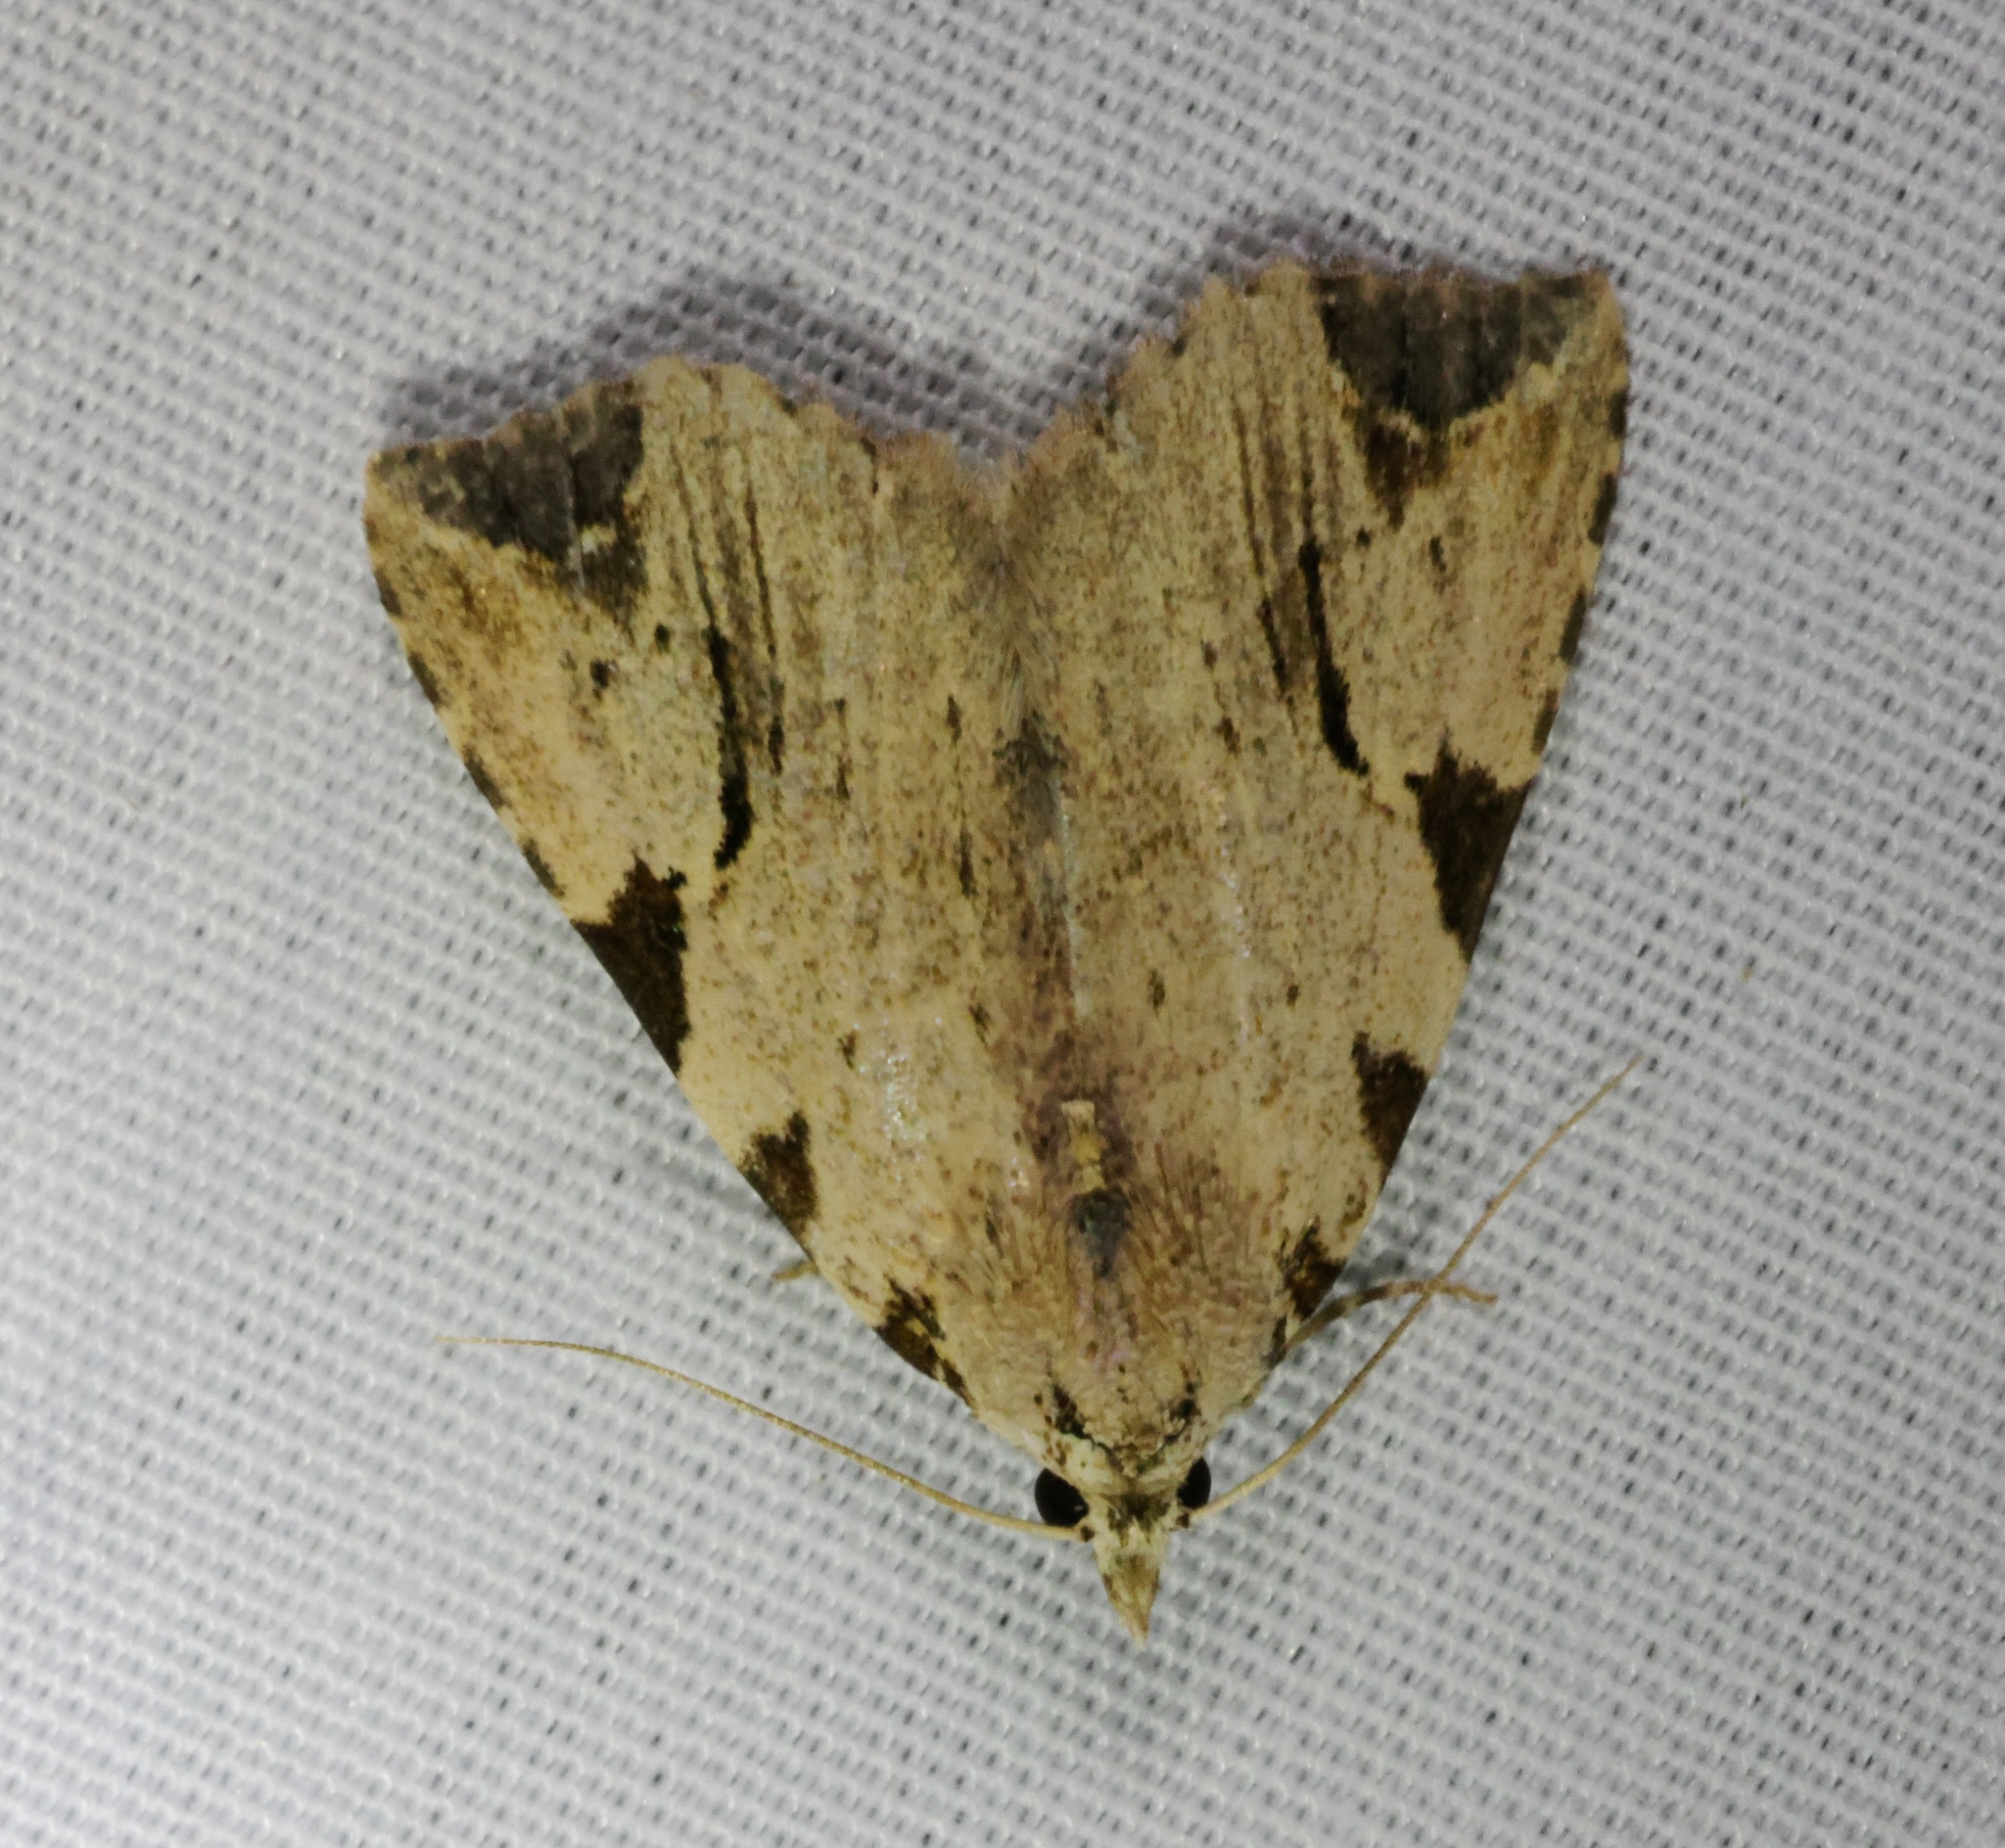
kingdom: Animalia
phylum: Arthropoda
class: Insecta
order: Lepidoptera
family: Erebidae
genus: Oglasa
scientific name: Oglasa costimacula
